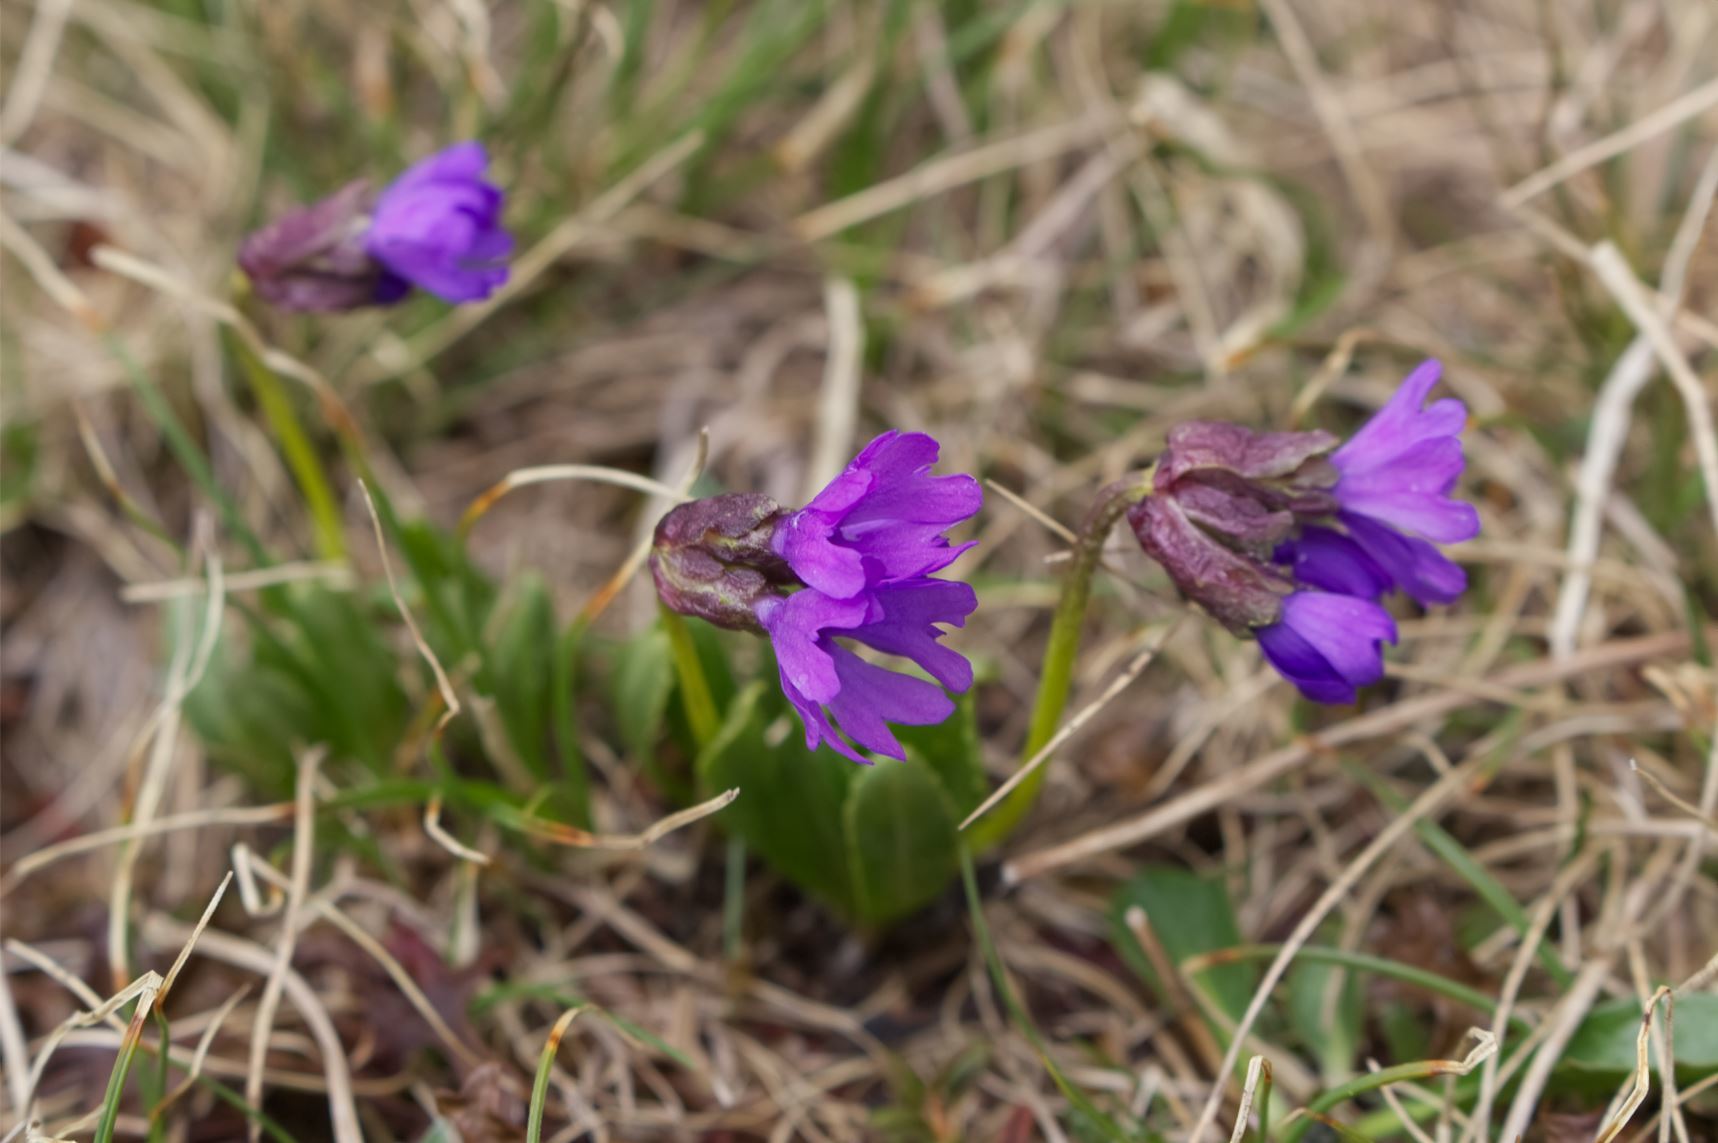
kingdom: Plantae
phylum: Tracheophyta
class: Magnoliopsida
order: Ericales
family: Primulaceae
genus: Primula
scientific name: Primula glutinosa
